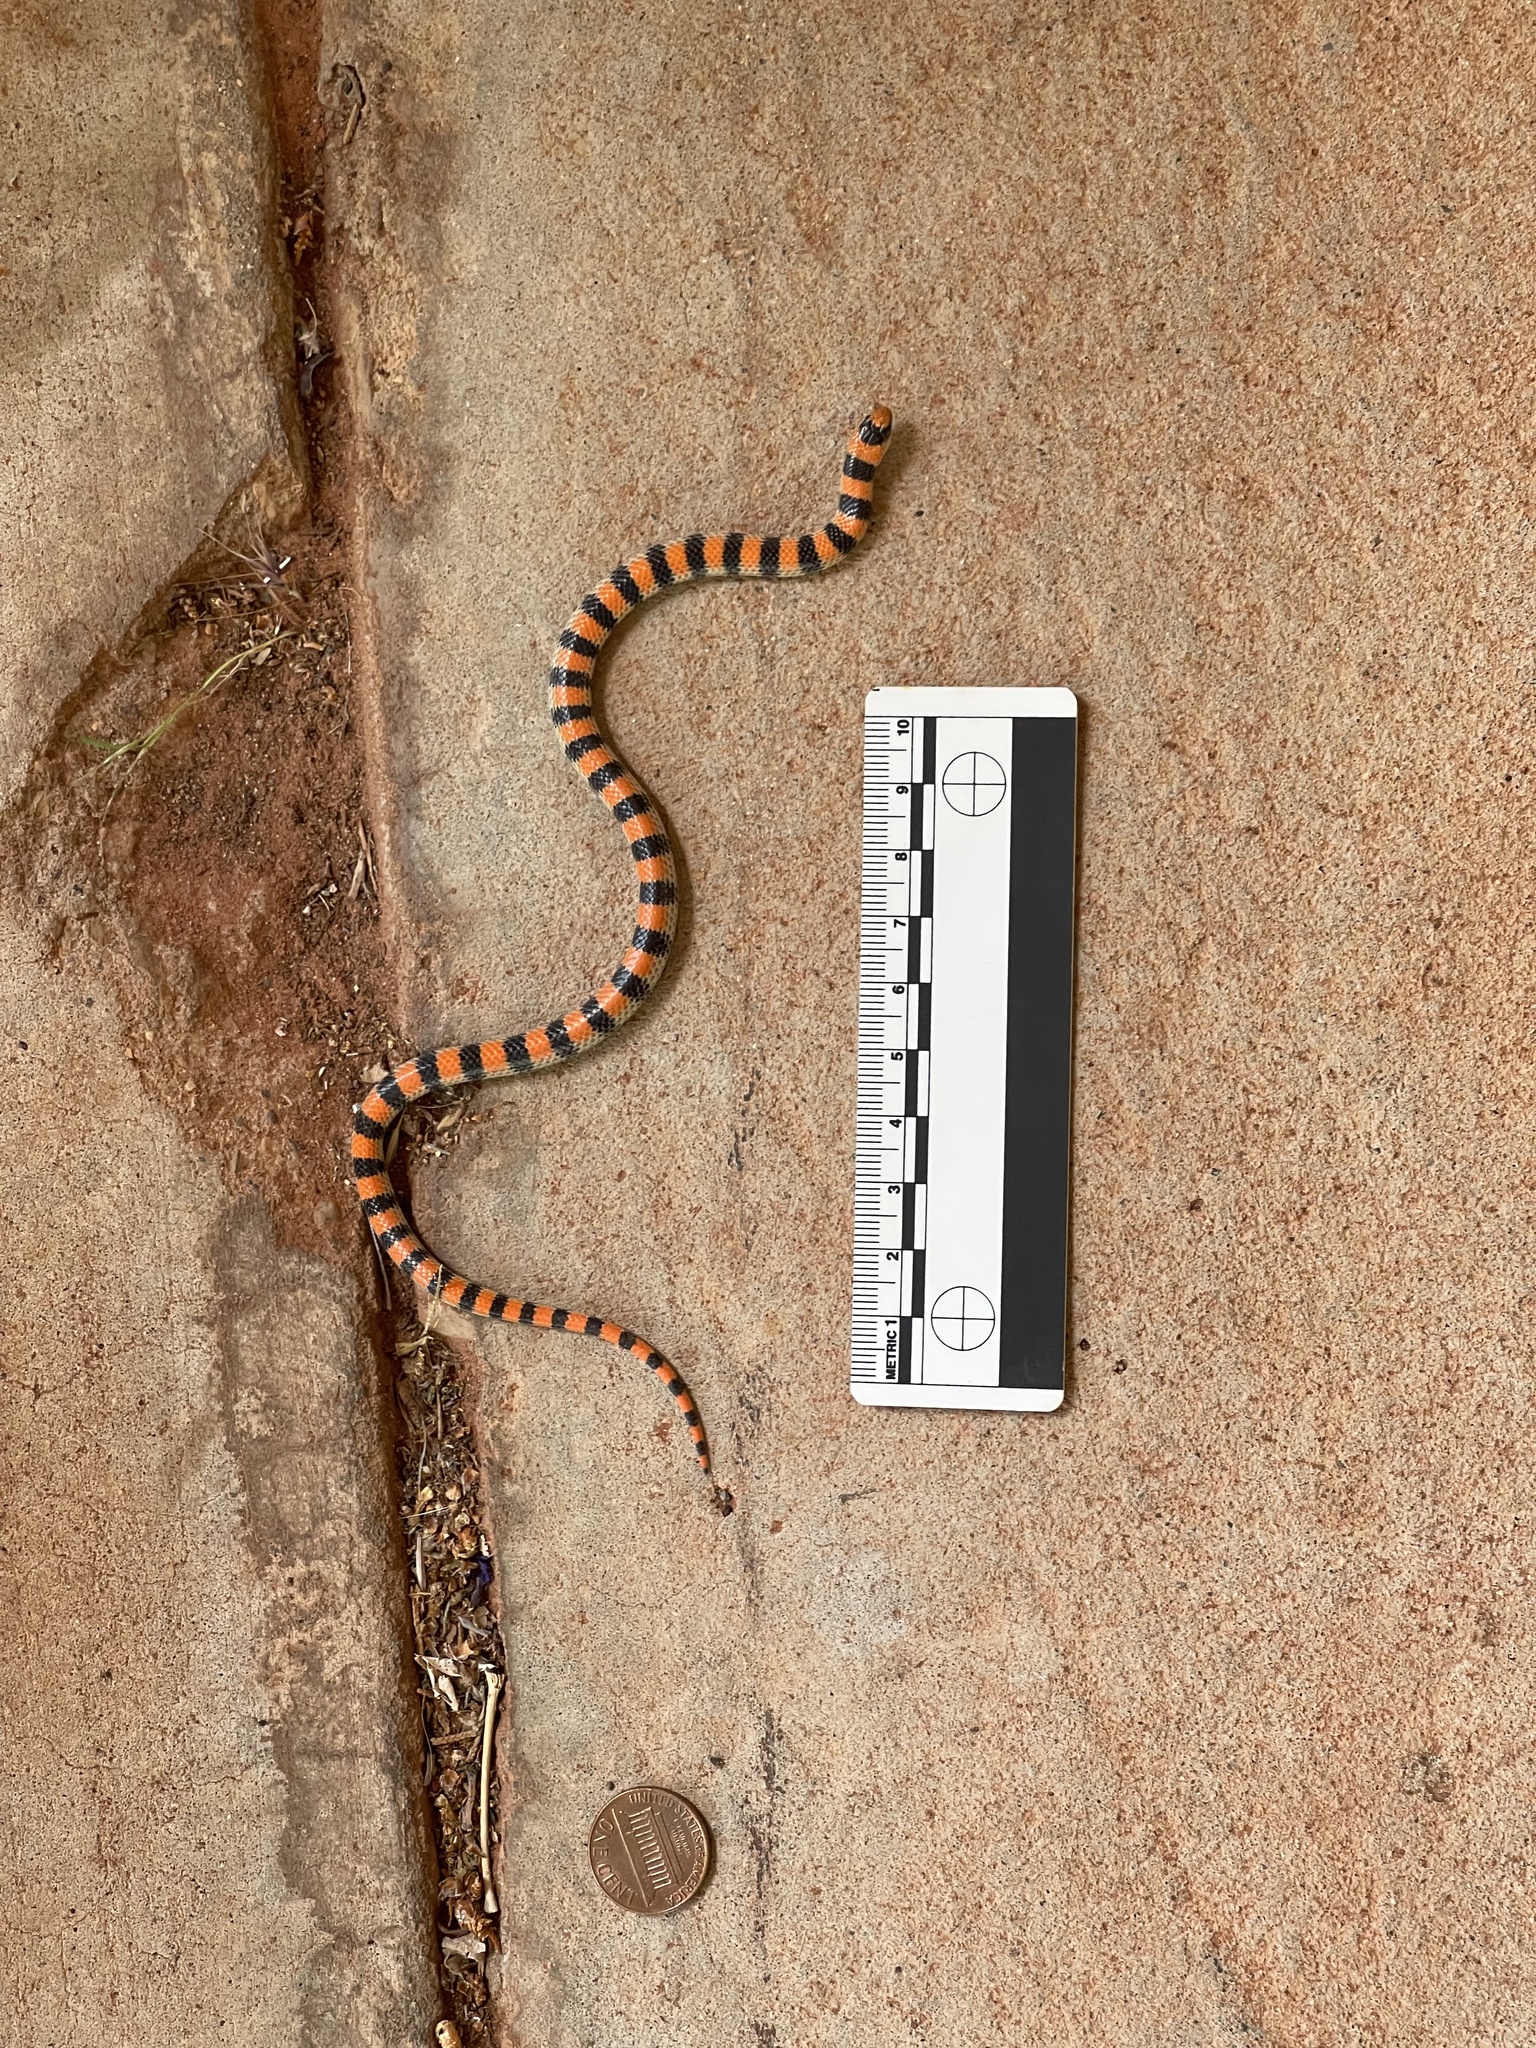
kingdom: Animalia
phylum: Chordata
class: Squamata
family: Colubridae
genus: Sonora
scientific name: Sonora semiannulata
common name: Ground snake
